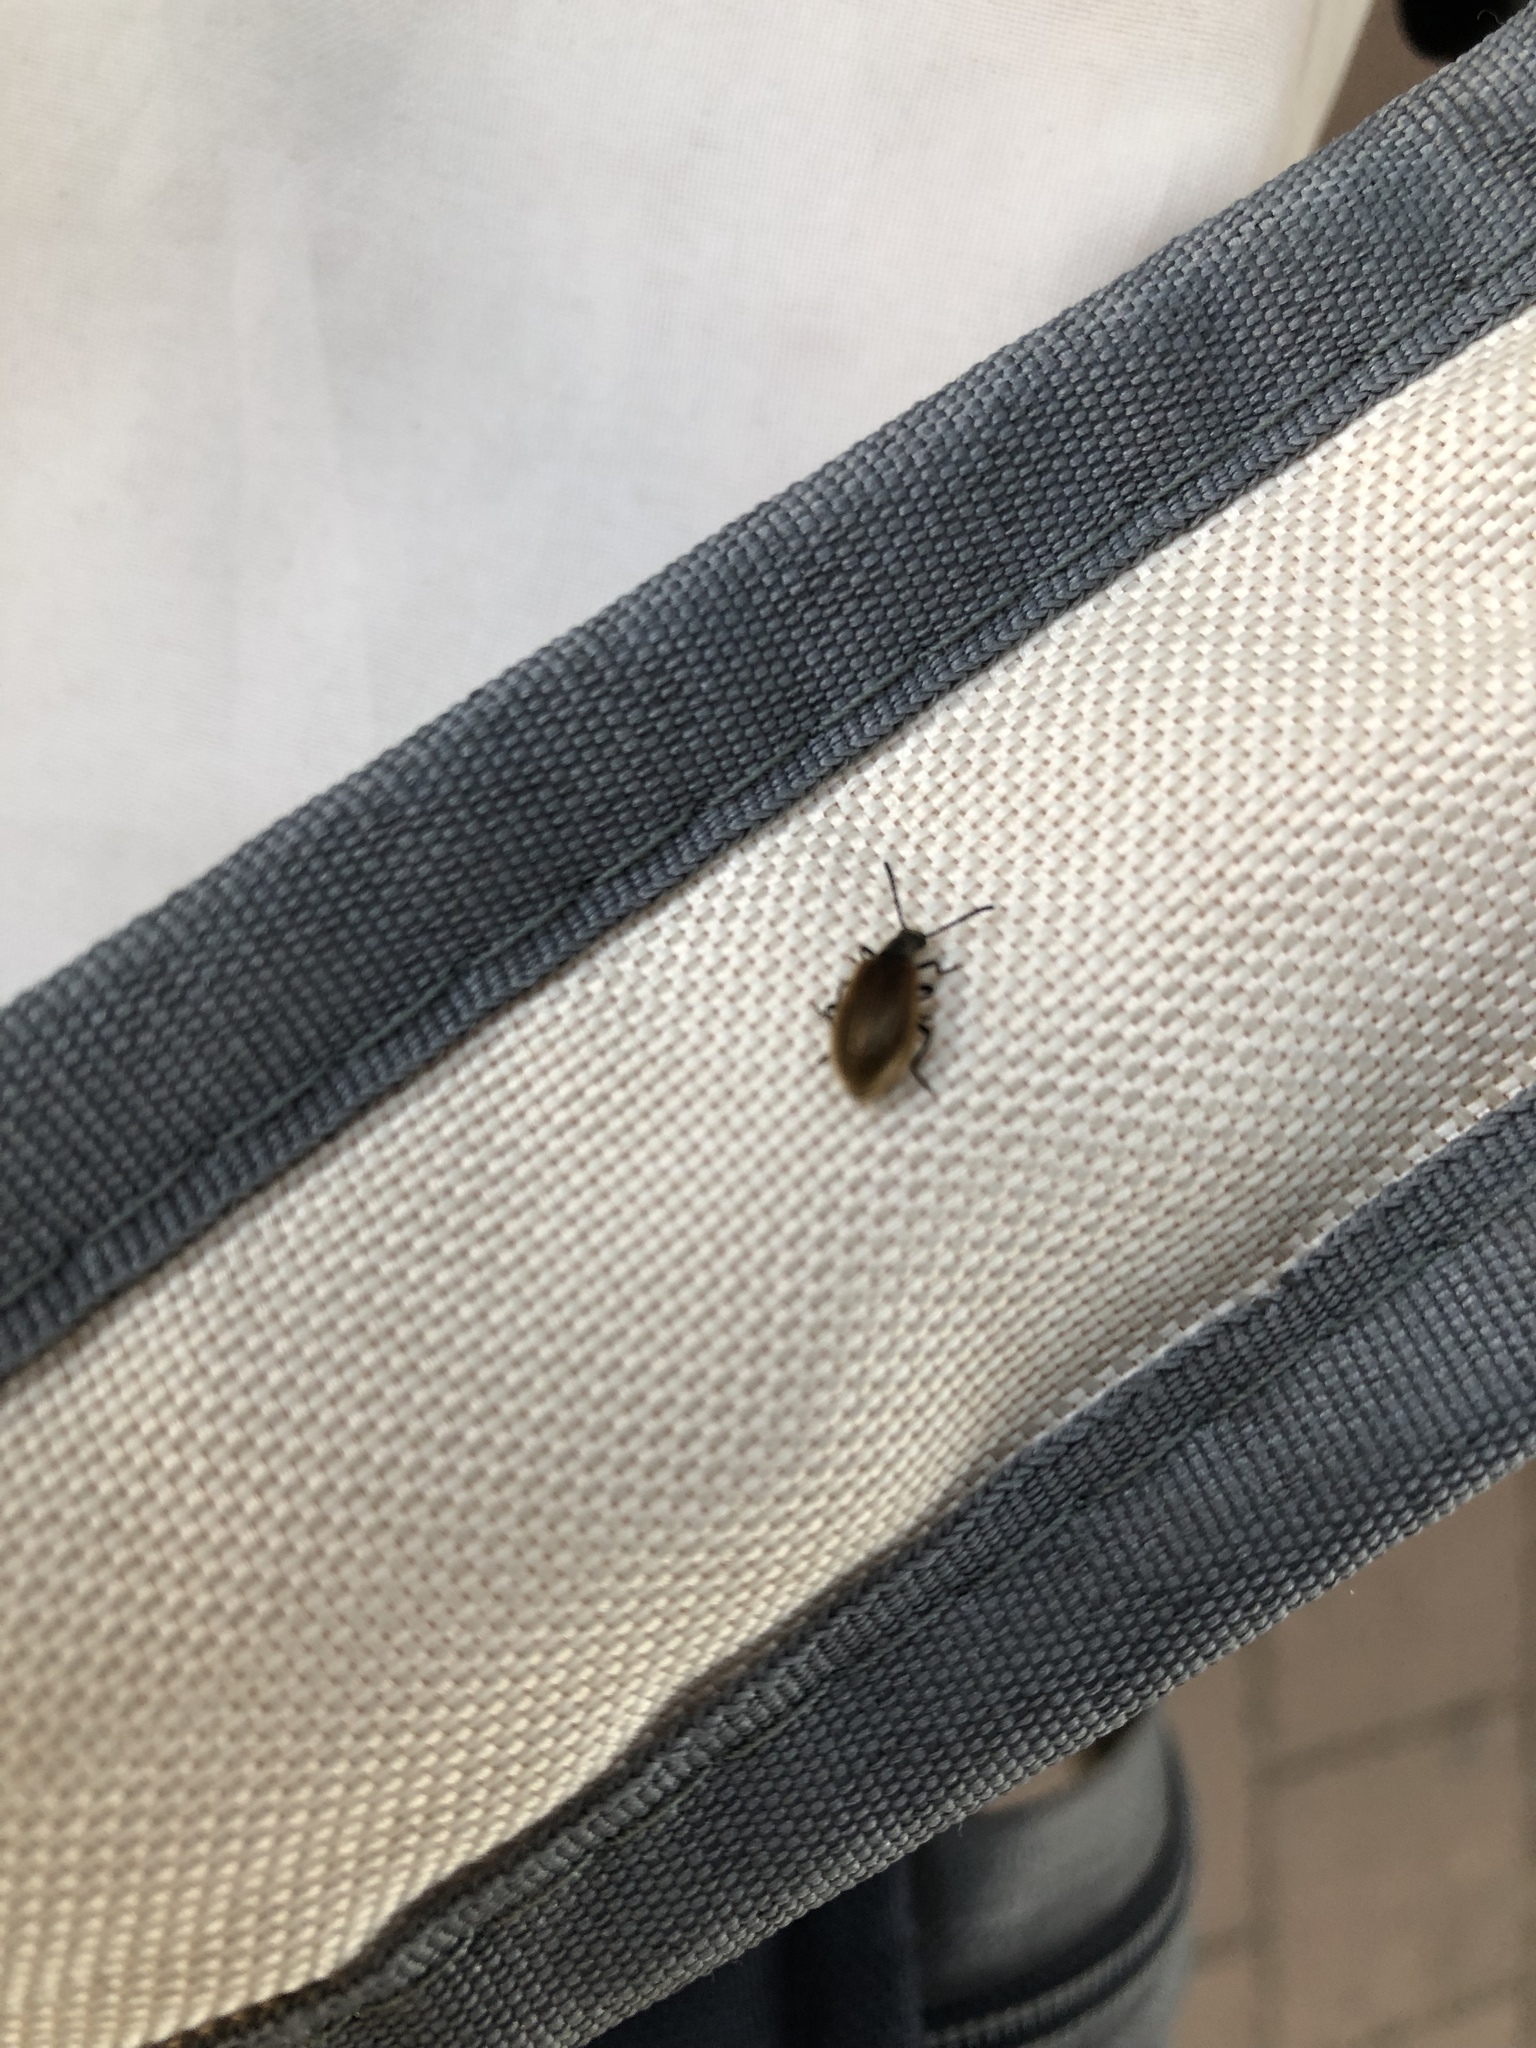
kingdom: Animalia
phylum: Arthropoda
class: Insecta
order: Coleoptera
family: Tenebrionidae
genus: Lagria
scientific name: Lagria hirta
